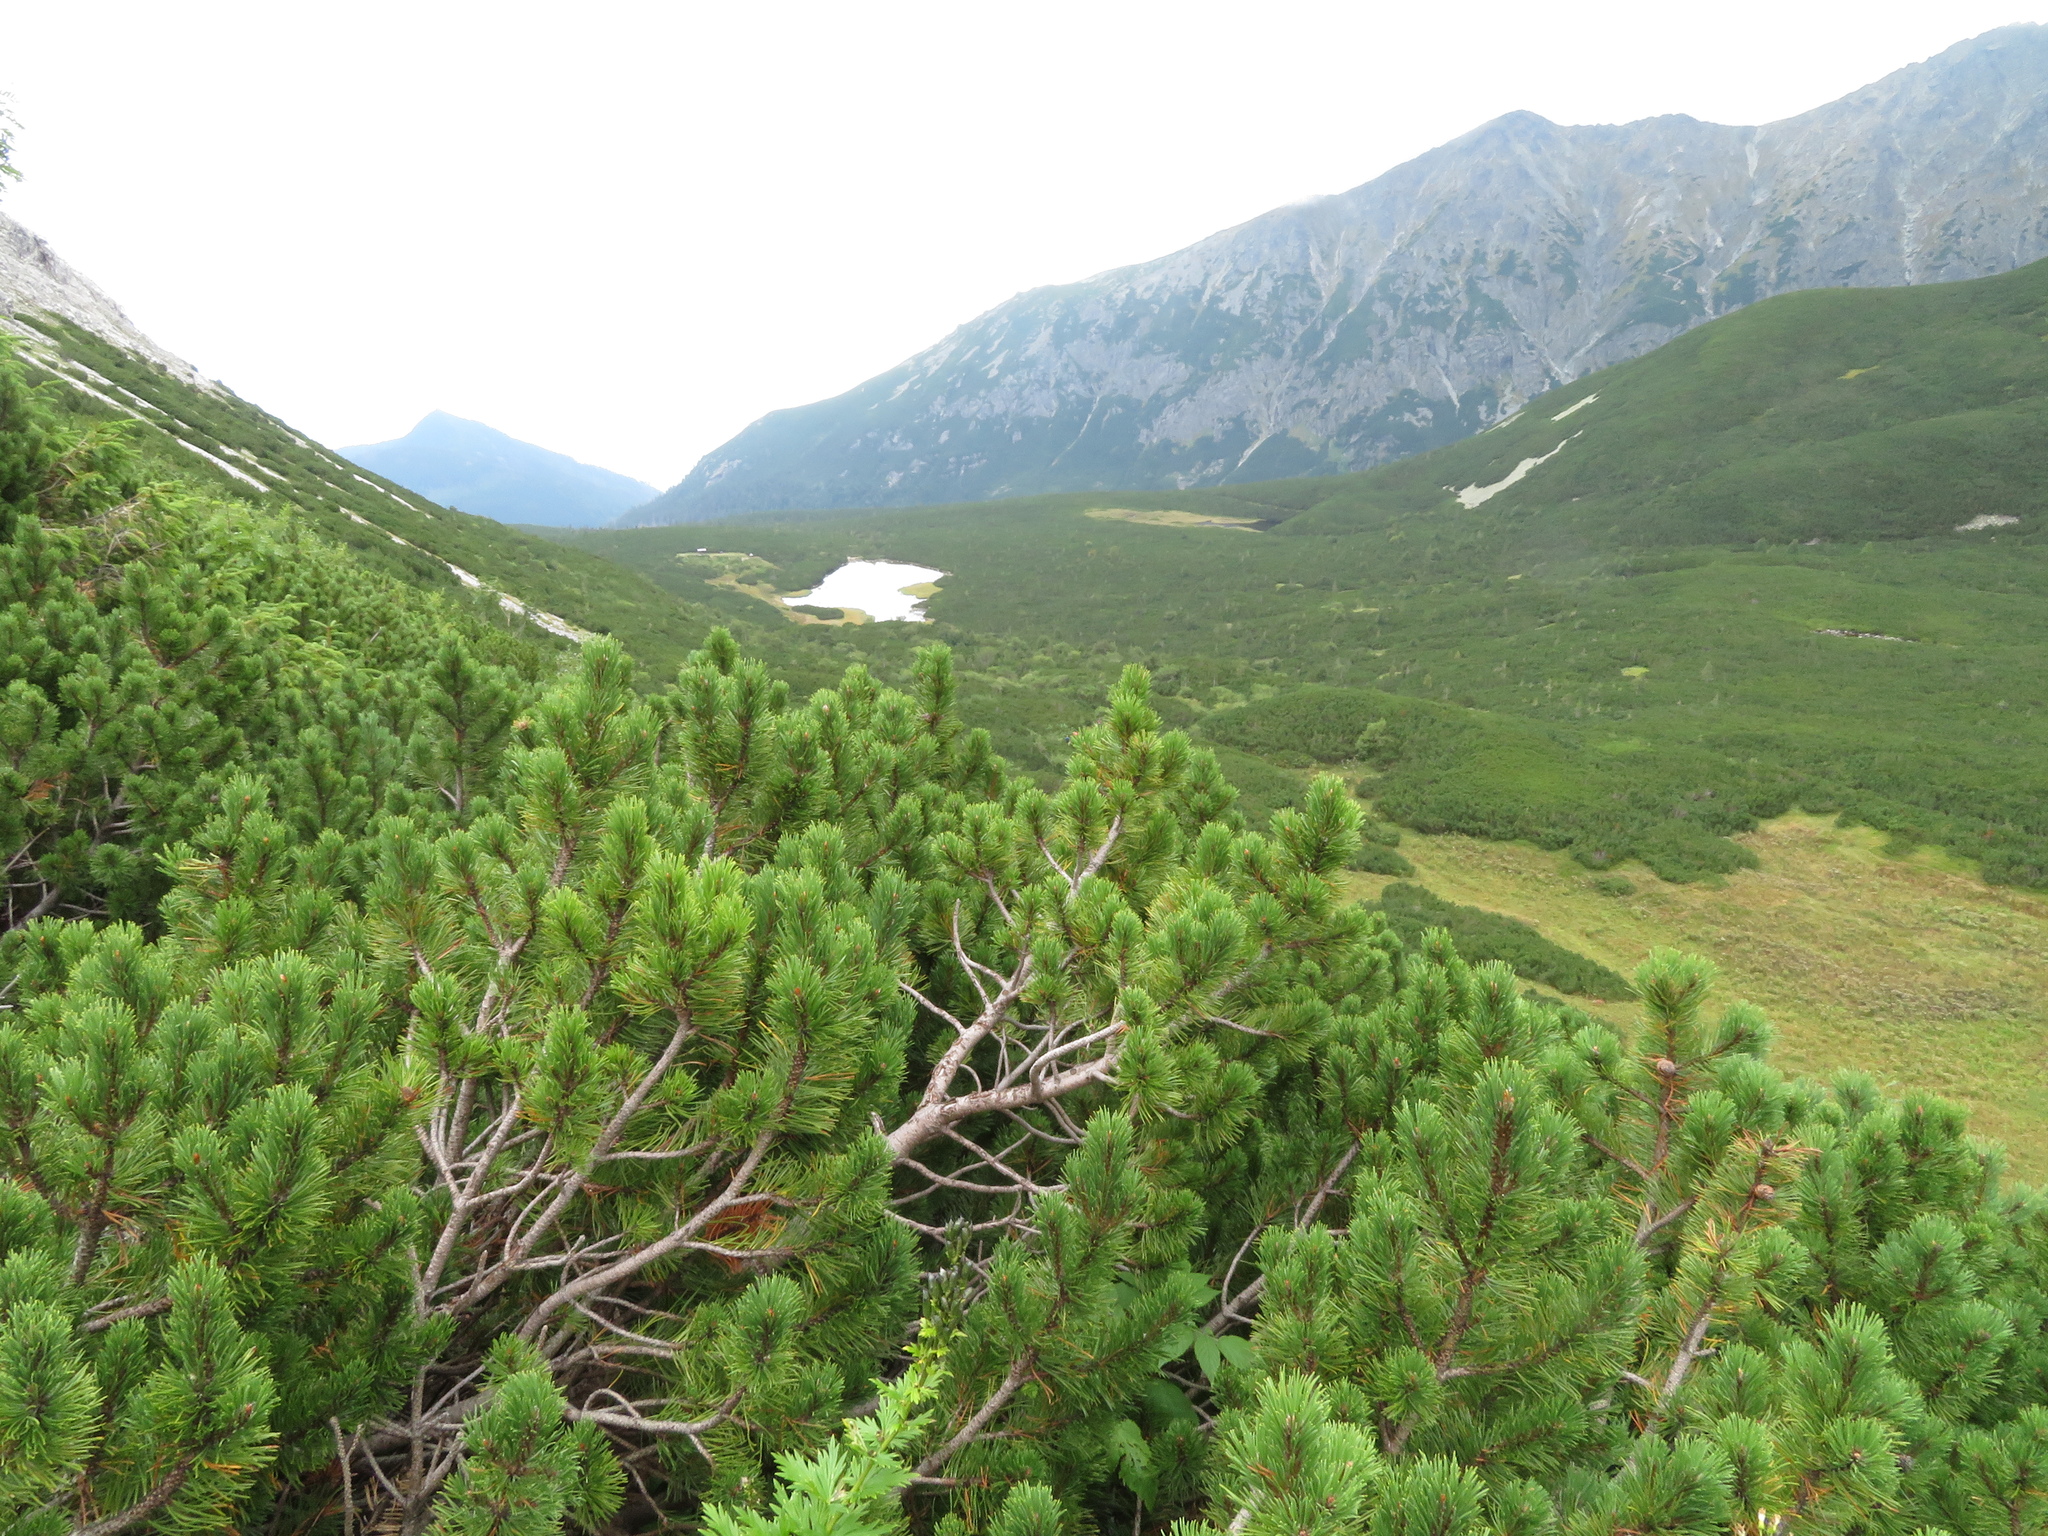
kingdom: Plantae
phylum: Tracheophyta
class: Pinopsida
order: Pinales
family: Pinaceae
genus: Pinus
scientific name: Pinus mugo
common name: Mugo pine
